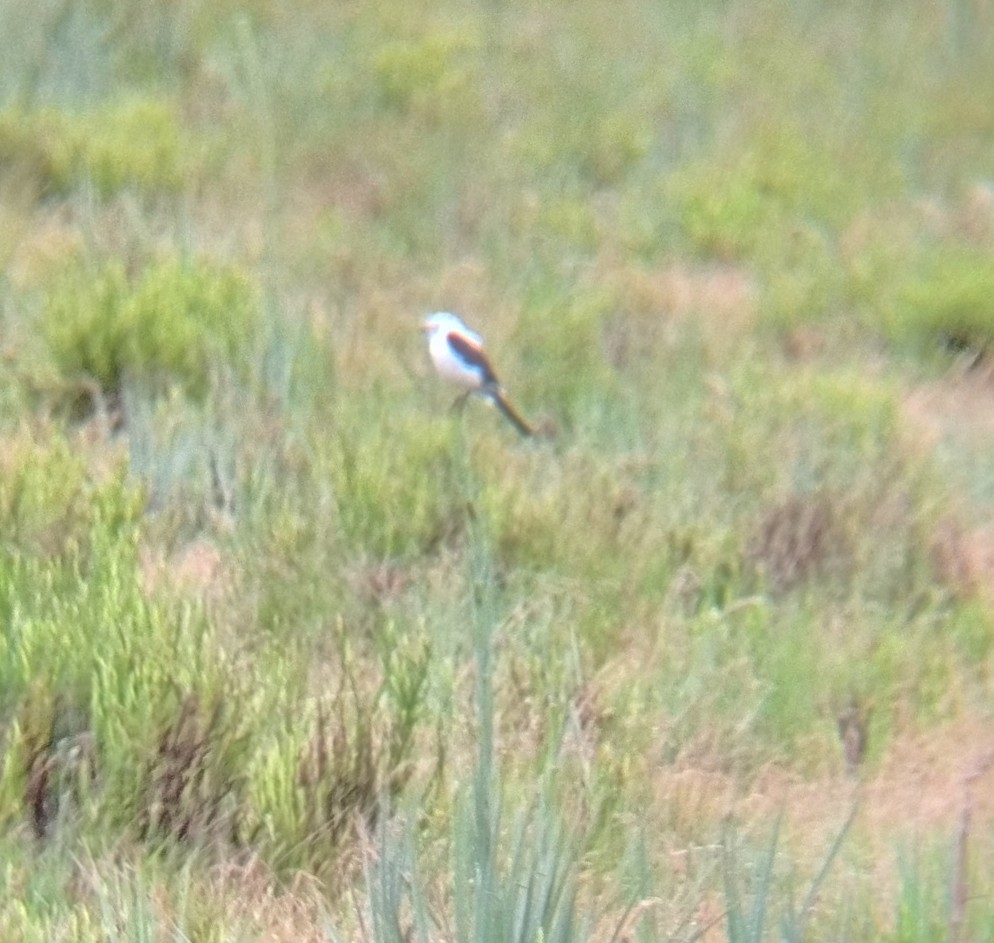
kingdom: Animalia
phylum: Chordata
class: Aves
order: Passeriformes
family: Tyrannidae
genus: Heteroxolmis
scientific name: Heteroxolmis dominicana
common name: Black-and-white monjita
